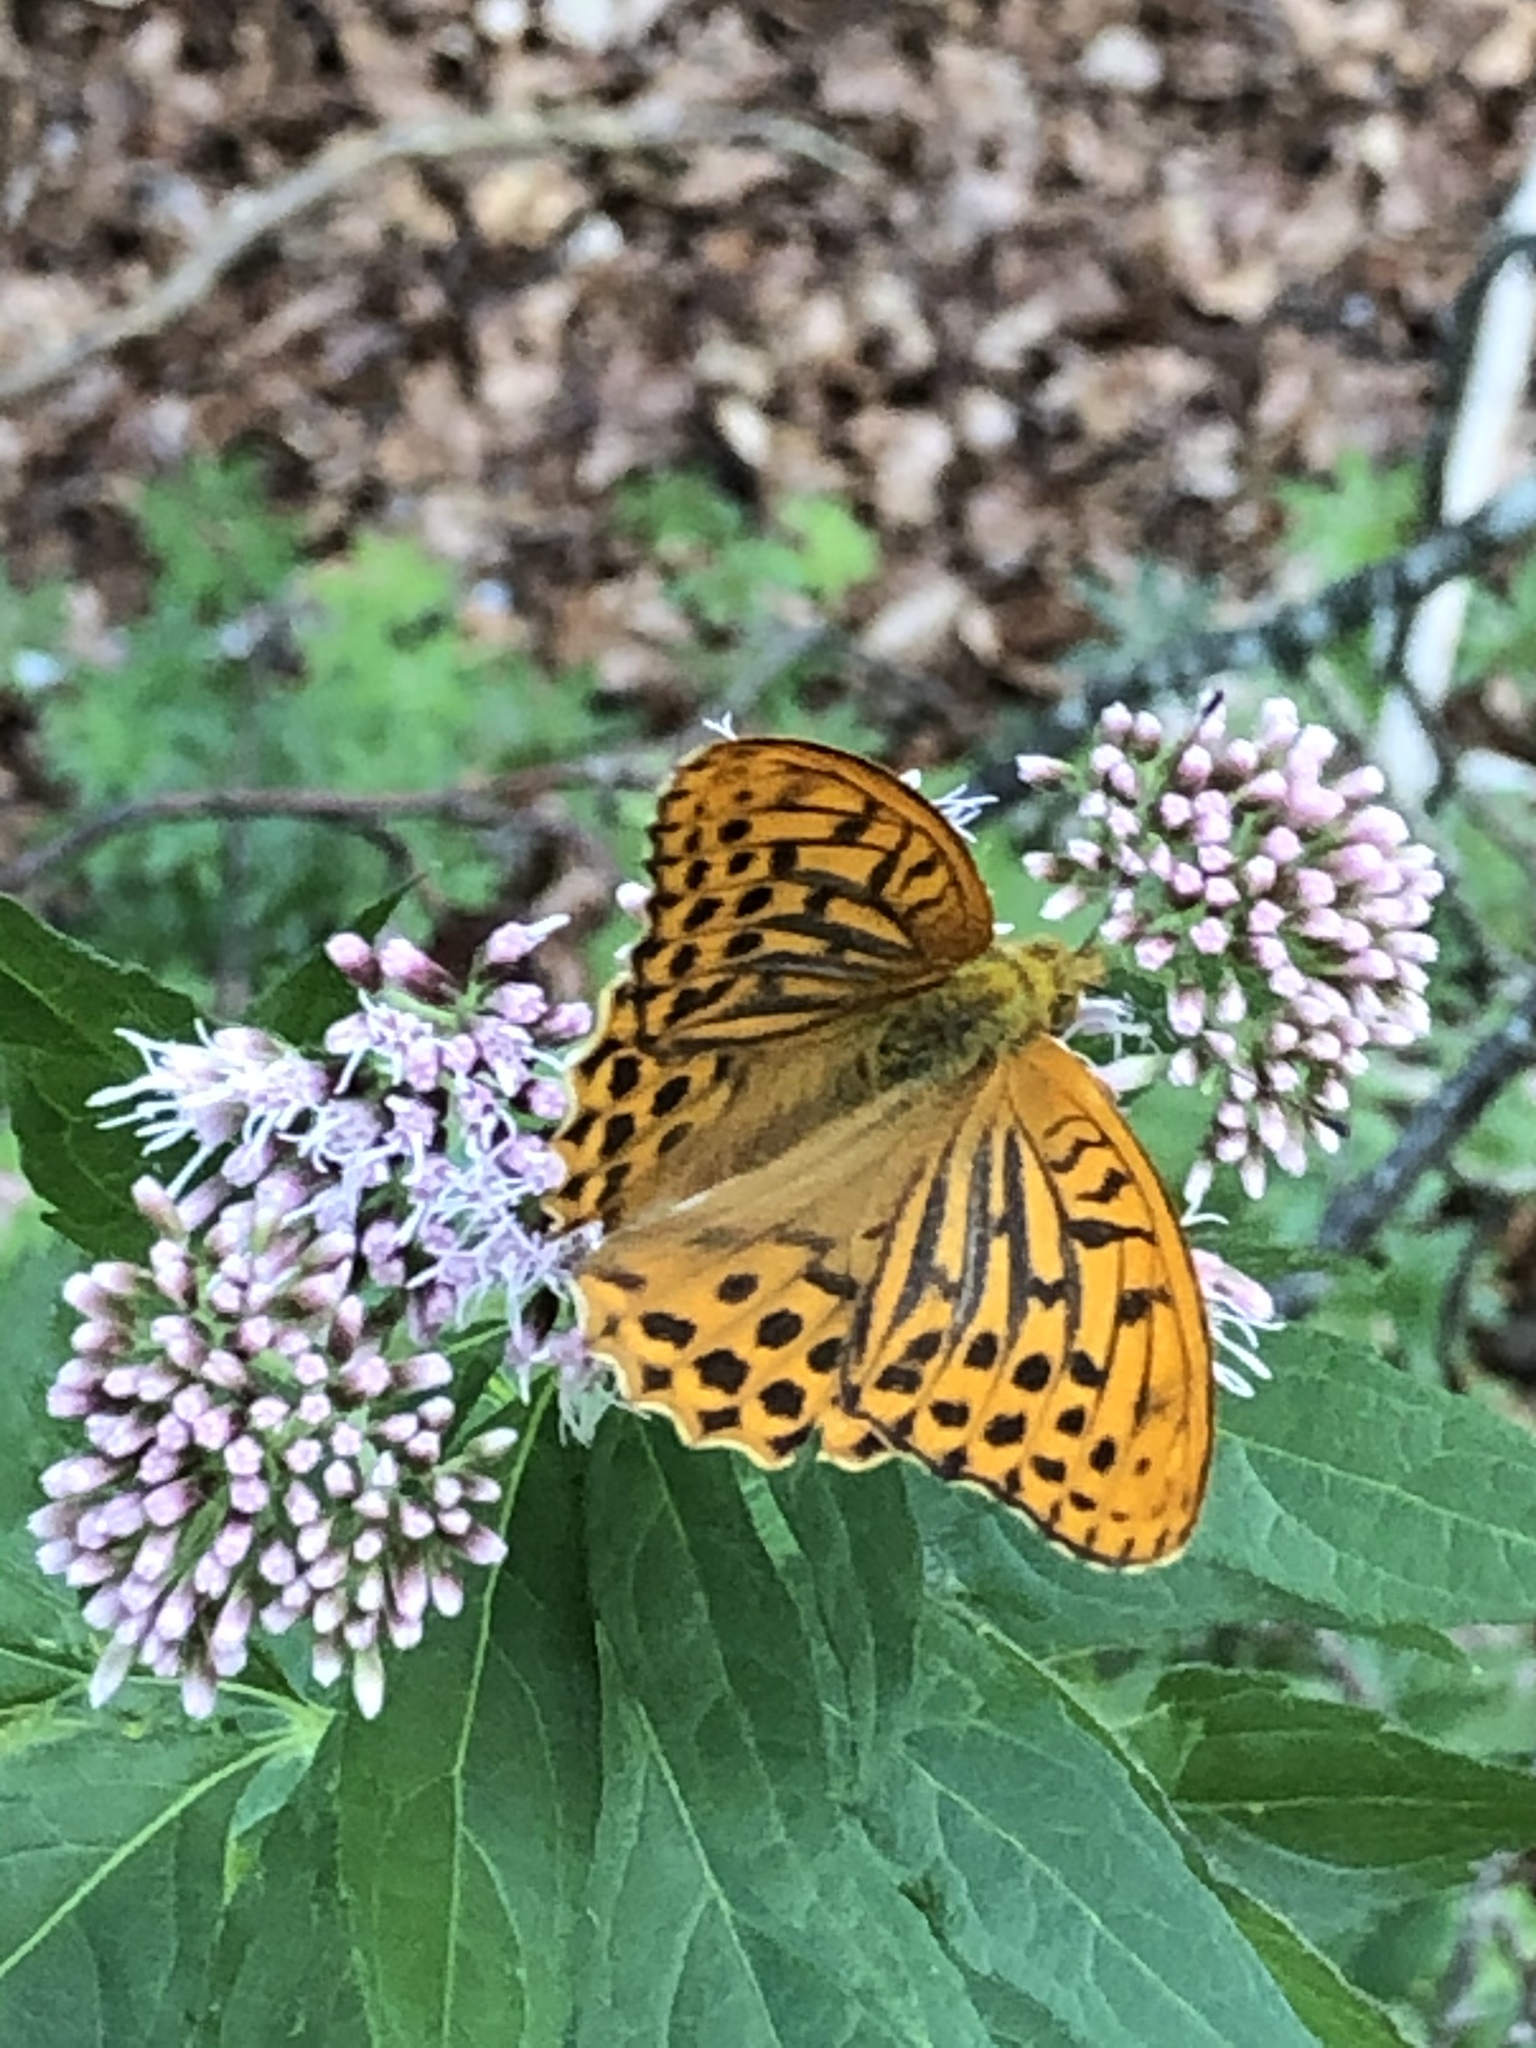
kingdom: Animalia
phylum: Arthropoda
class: Insecta
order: Lepidoptera
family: Nymphalidae
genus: Argynnis
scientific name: Argynnis paphia
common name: Silver-washed fritillary
